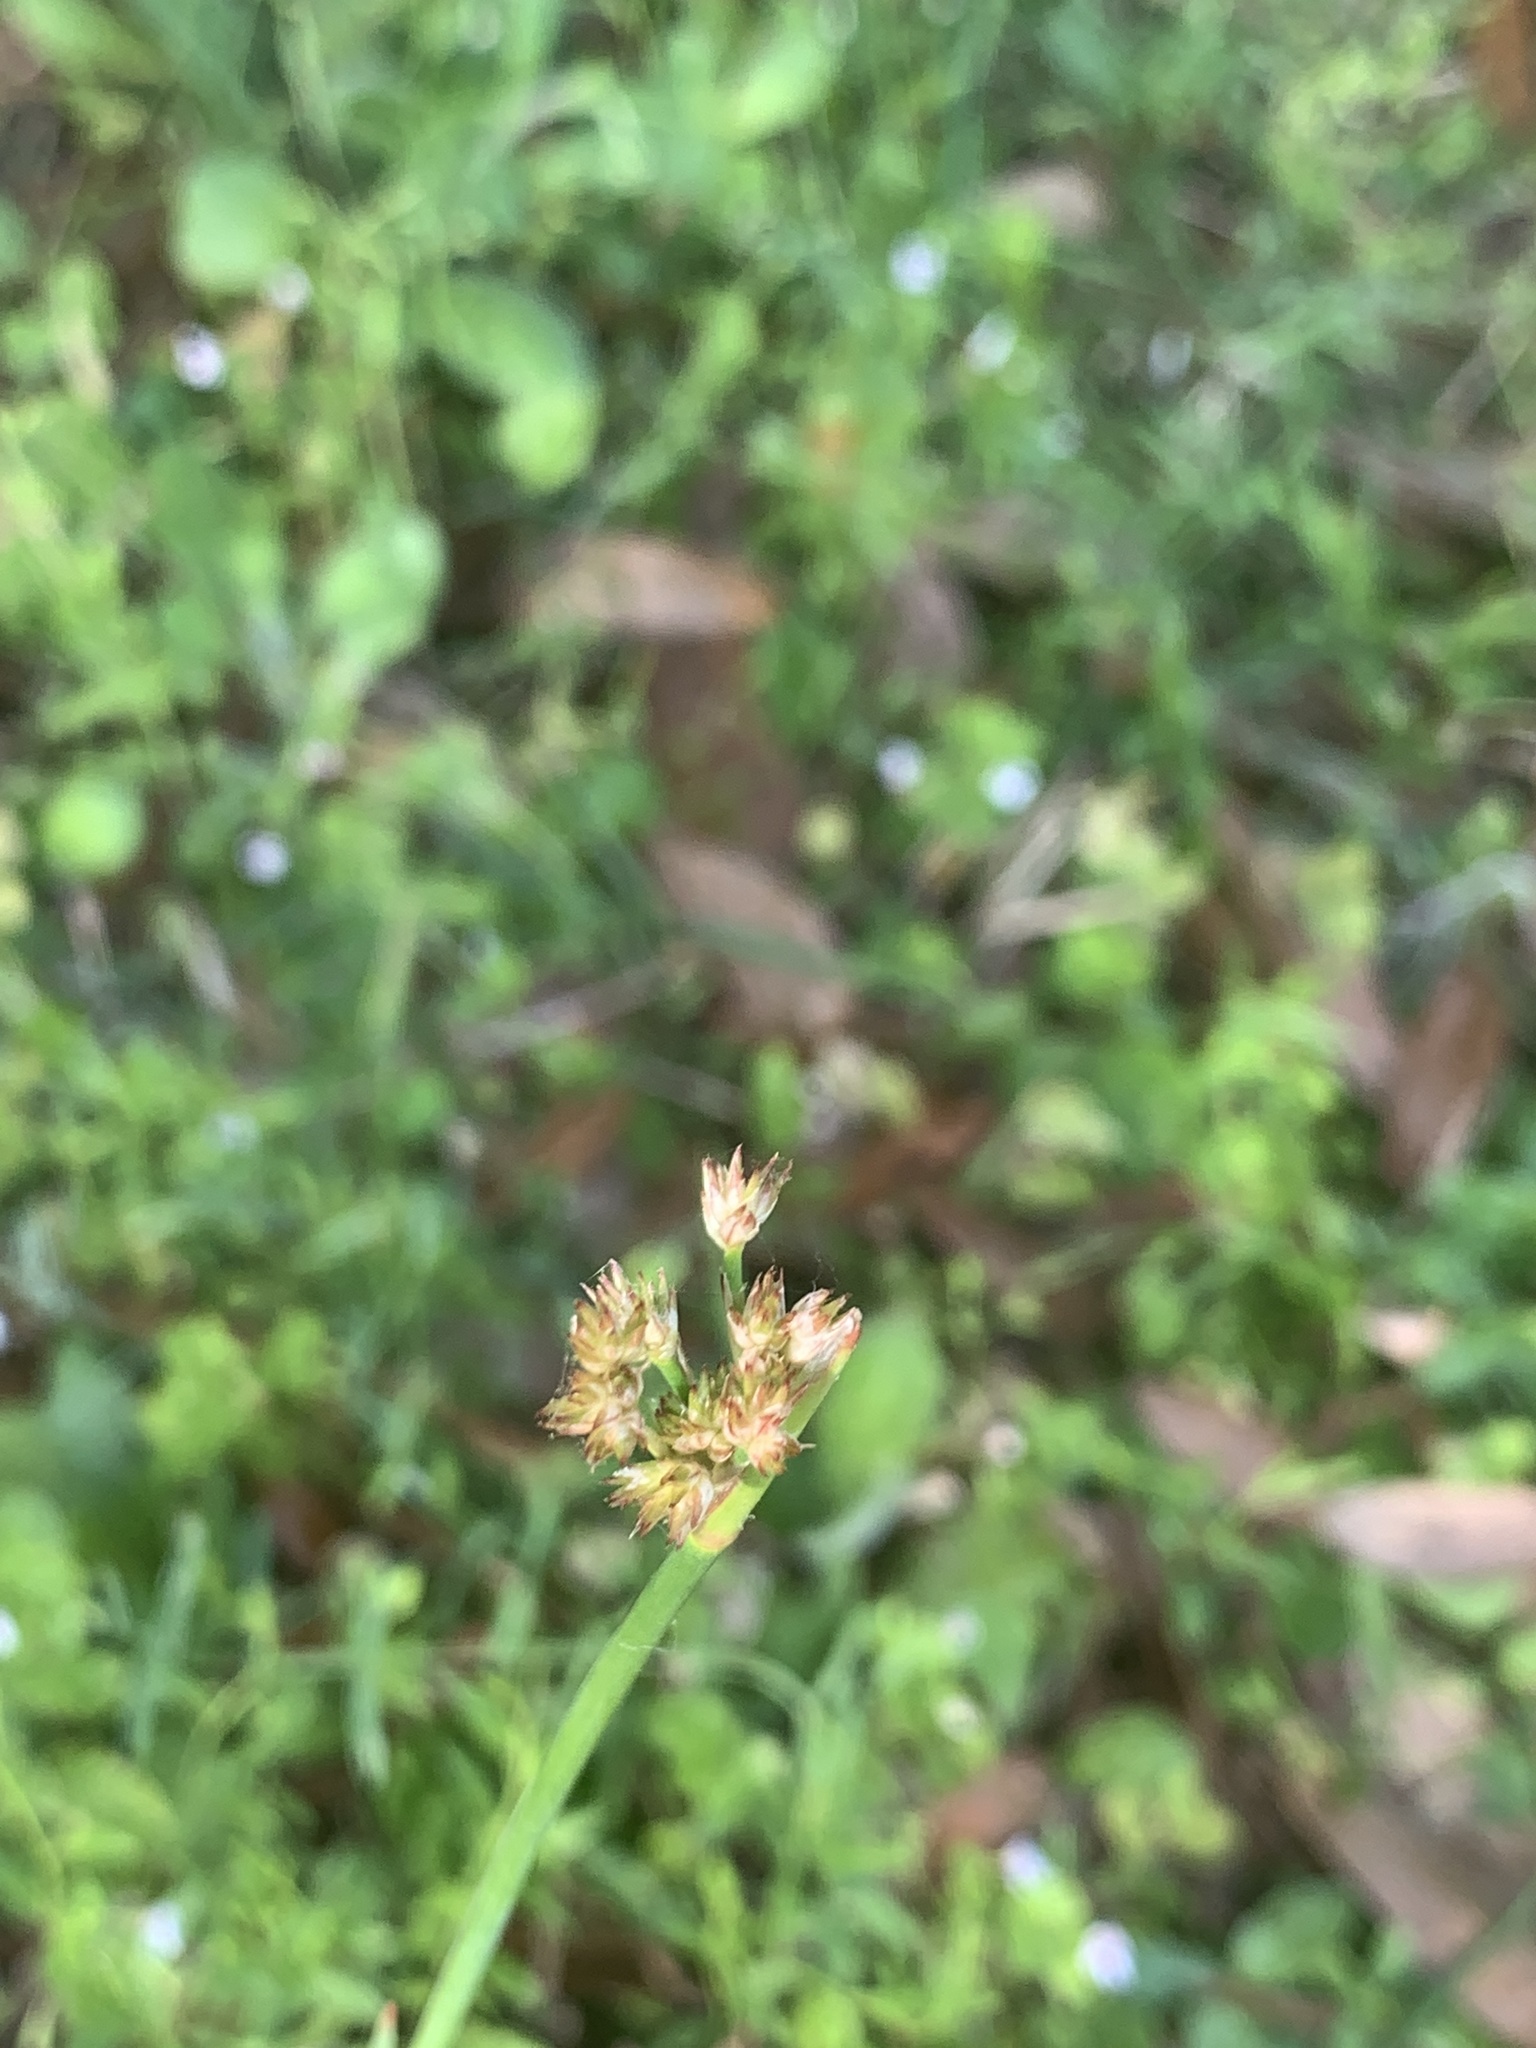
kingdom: Plantae
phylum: Tracheophyta
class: Liliopsida
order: Poales
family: Juncaceae
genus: Juncus
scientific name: Juncus megacephalus
